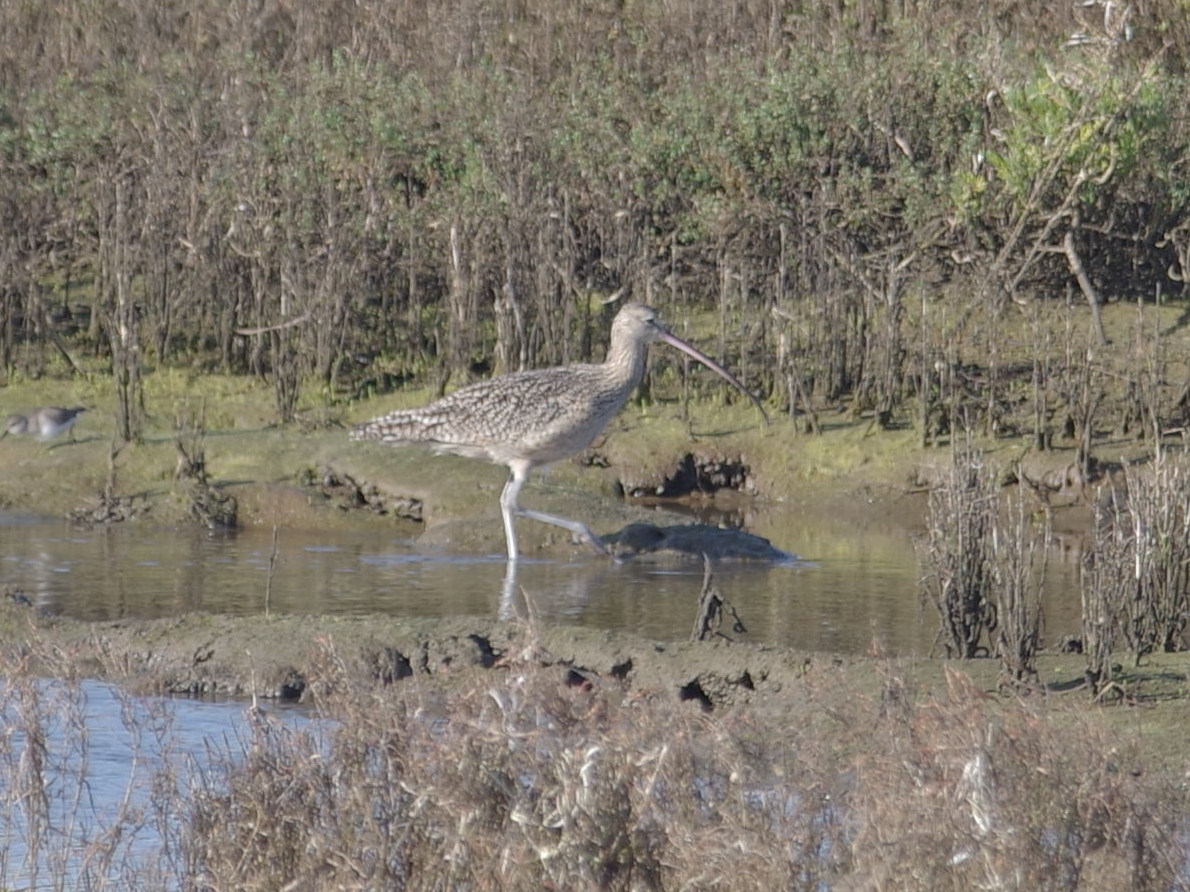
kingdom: Animalia
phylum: Chordata
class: Aves
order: Charadriiformes
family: Scolopacidae
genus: Numenius
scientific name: Numenius americanus
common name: Long-billed curlew
